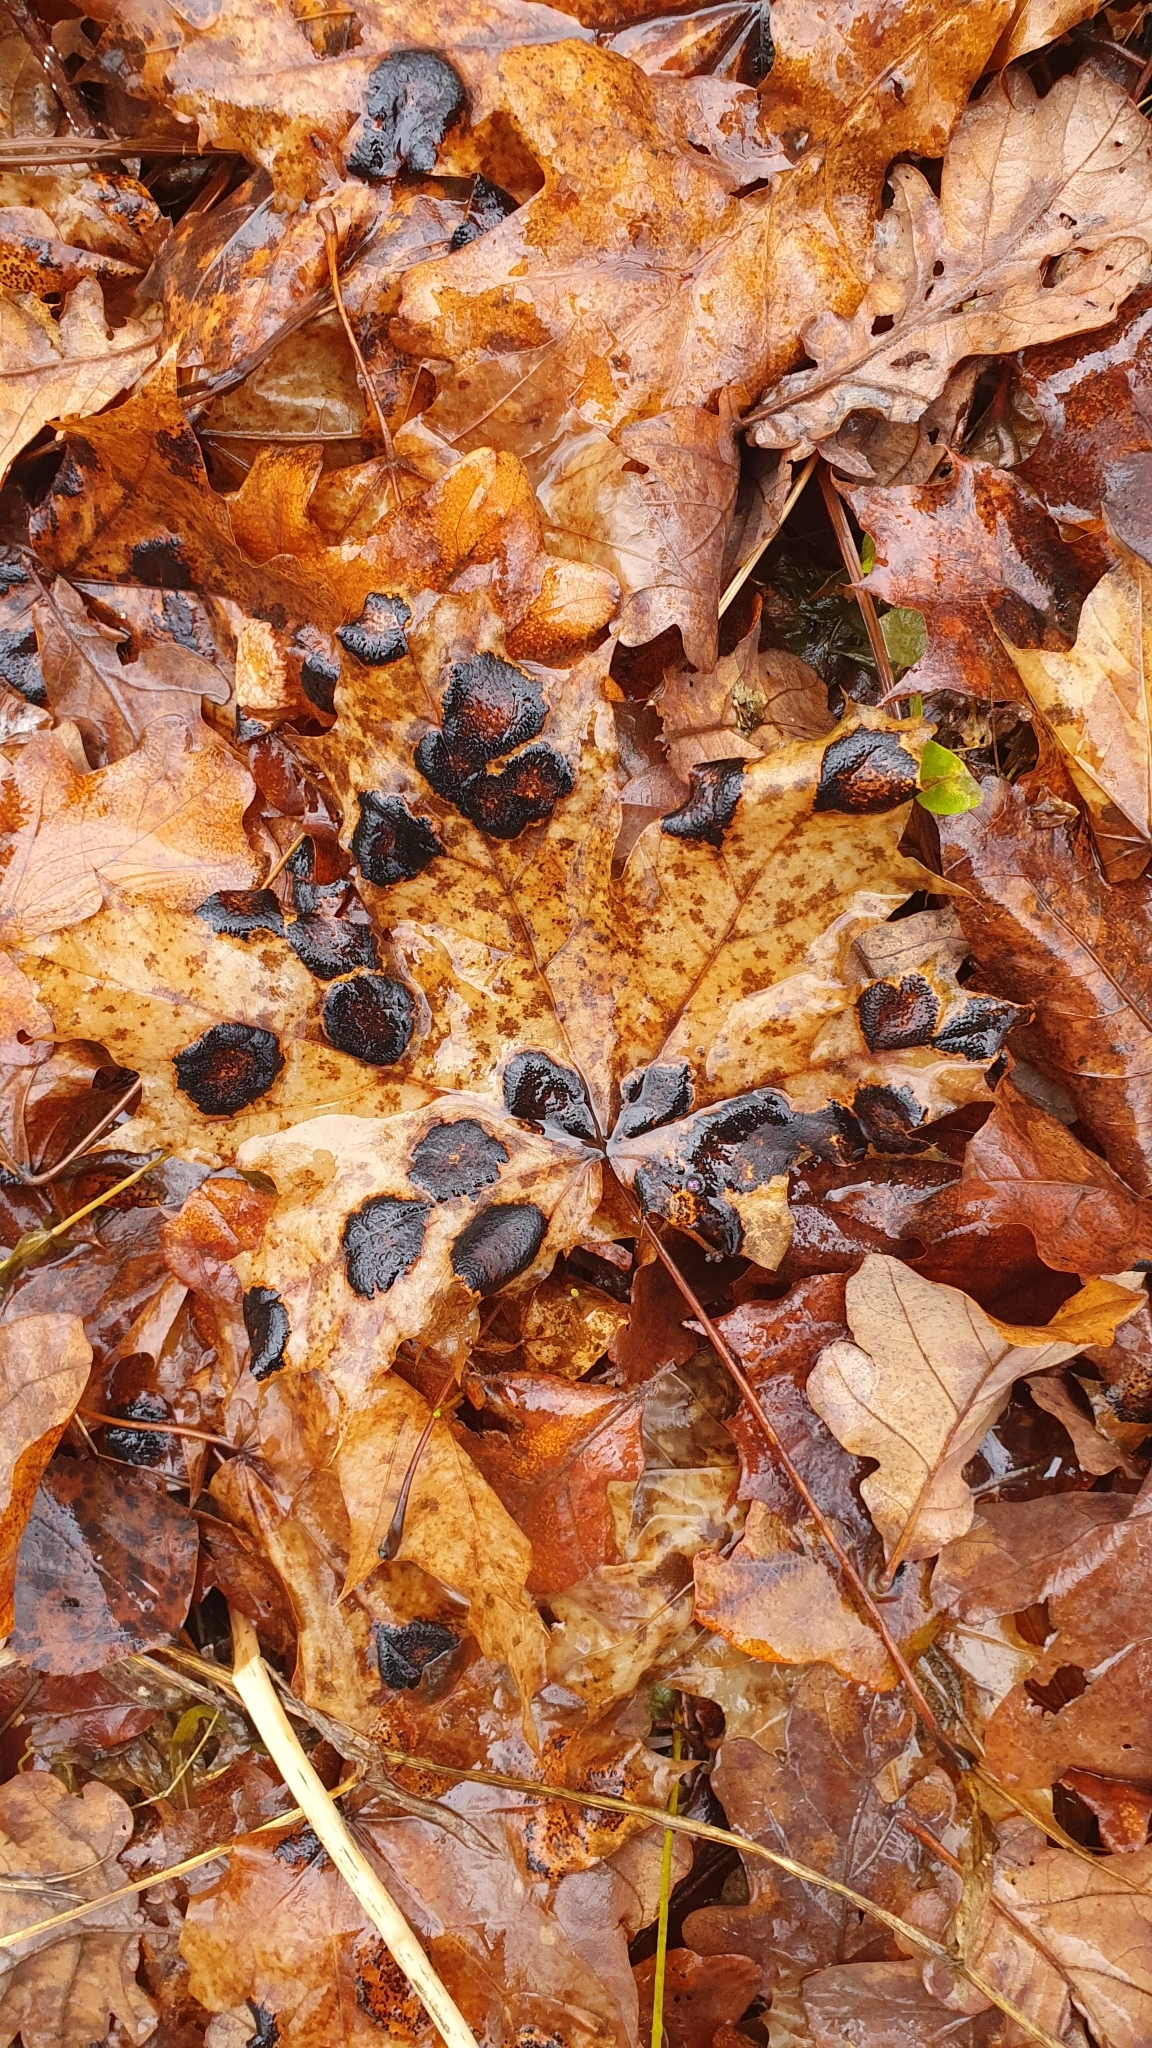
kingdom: Fungi
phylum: Ascomycota
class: Leotiomycetes
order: Rhytismatales
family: Rhytismataceae
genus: Rhytisma
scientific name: Rhytisma acerinum
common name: European tar spot
